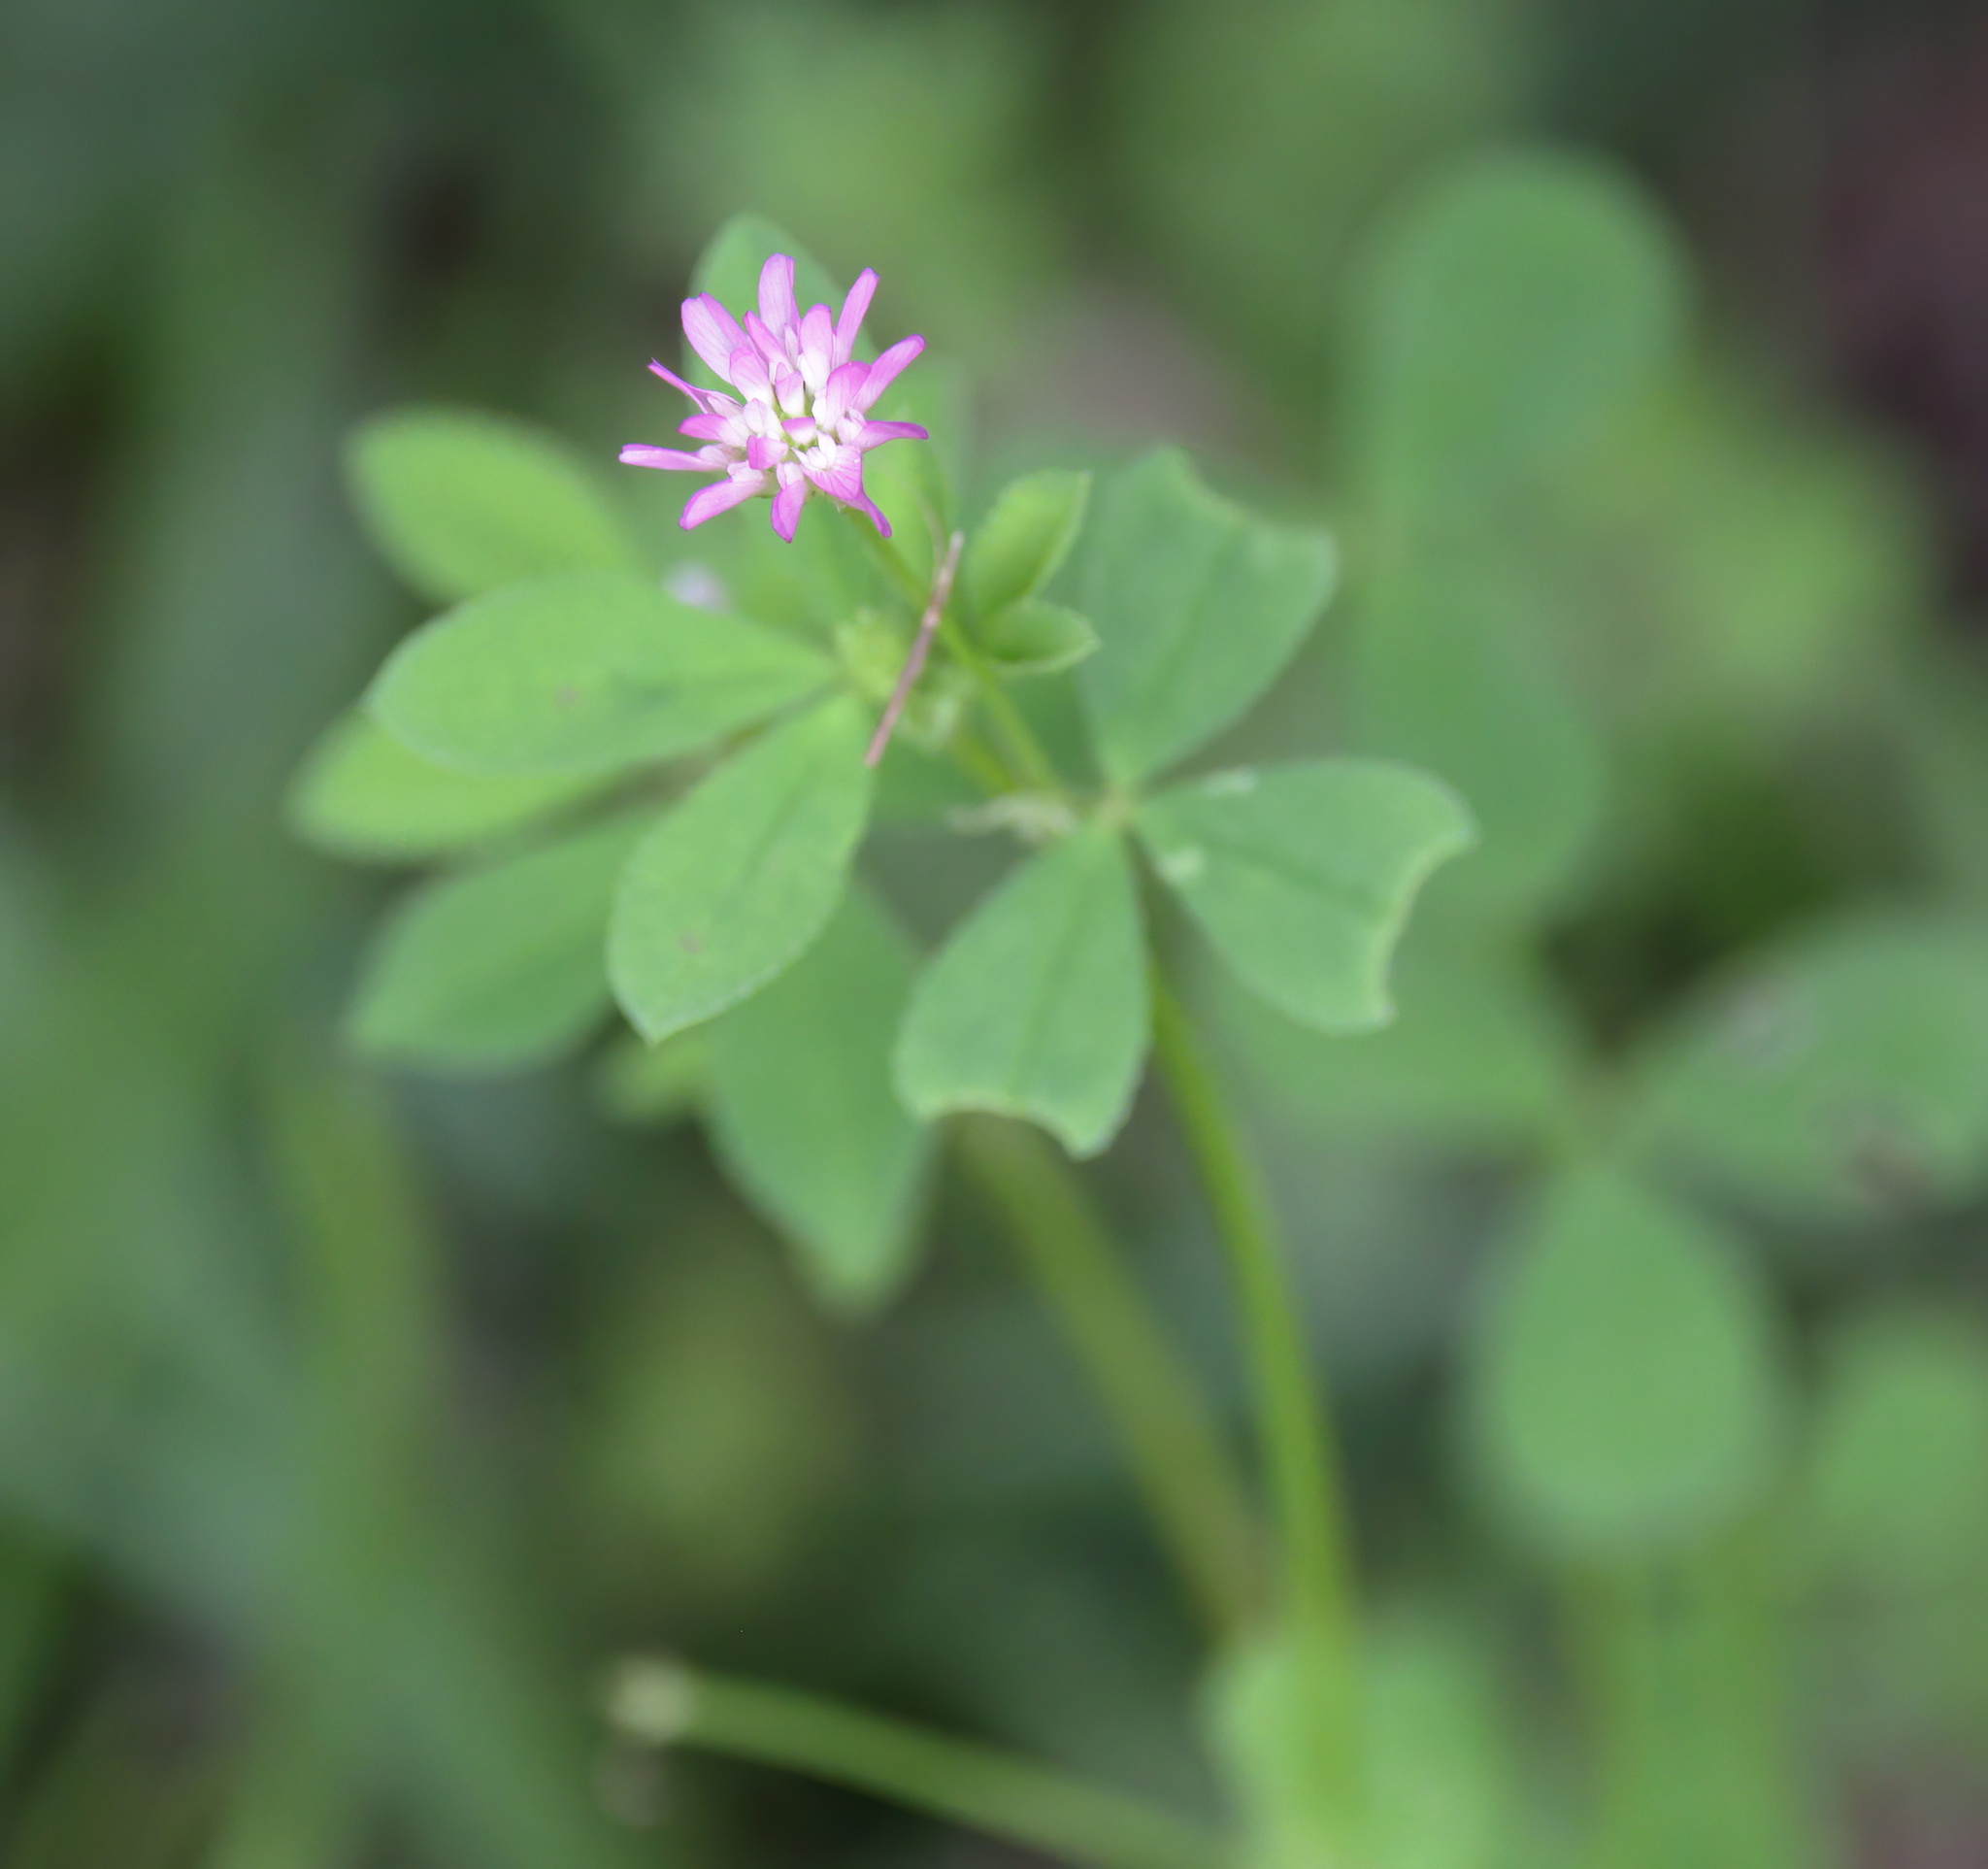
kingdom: Plantae
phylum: Tracheophyta
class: Magnoliopsida
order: Fabales
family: Fabaceae
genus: Trifolium
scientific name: Trifolium resupinatum
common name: Reversed clover
